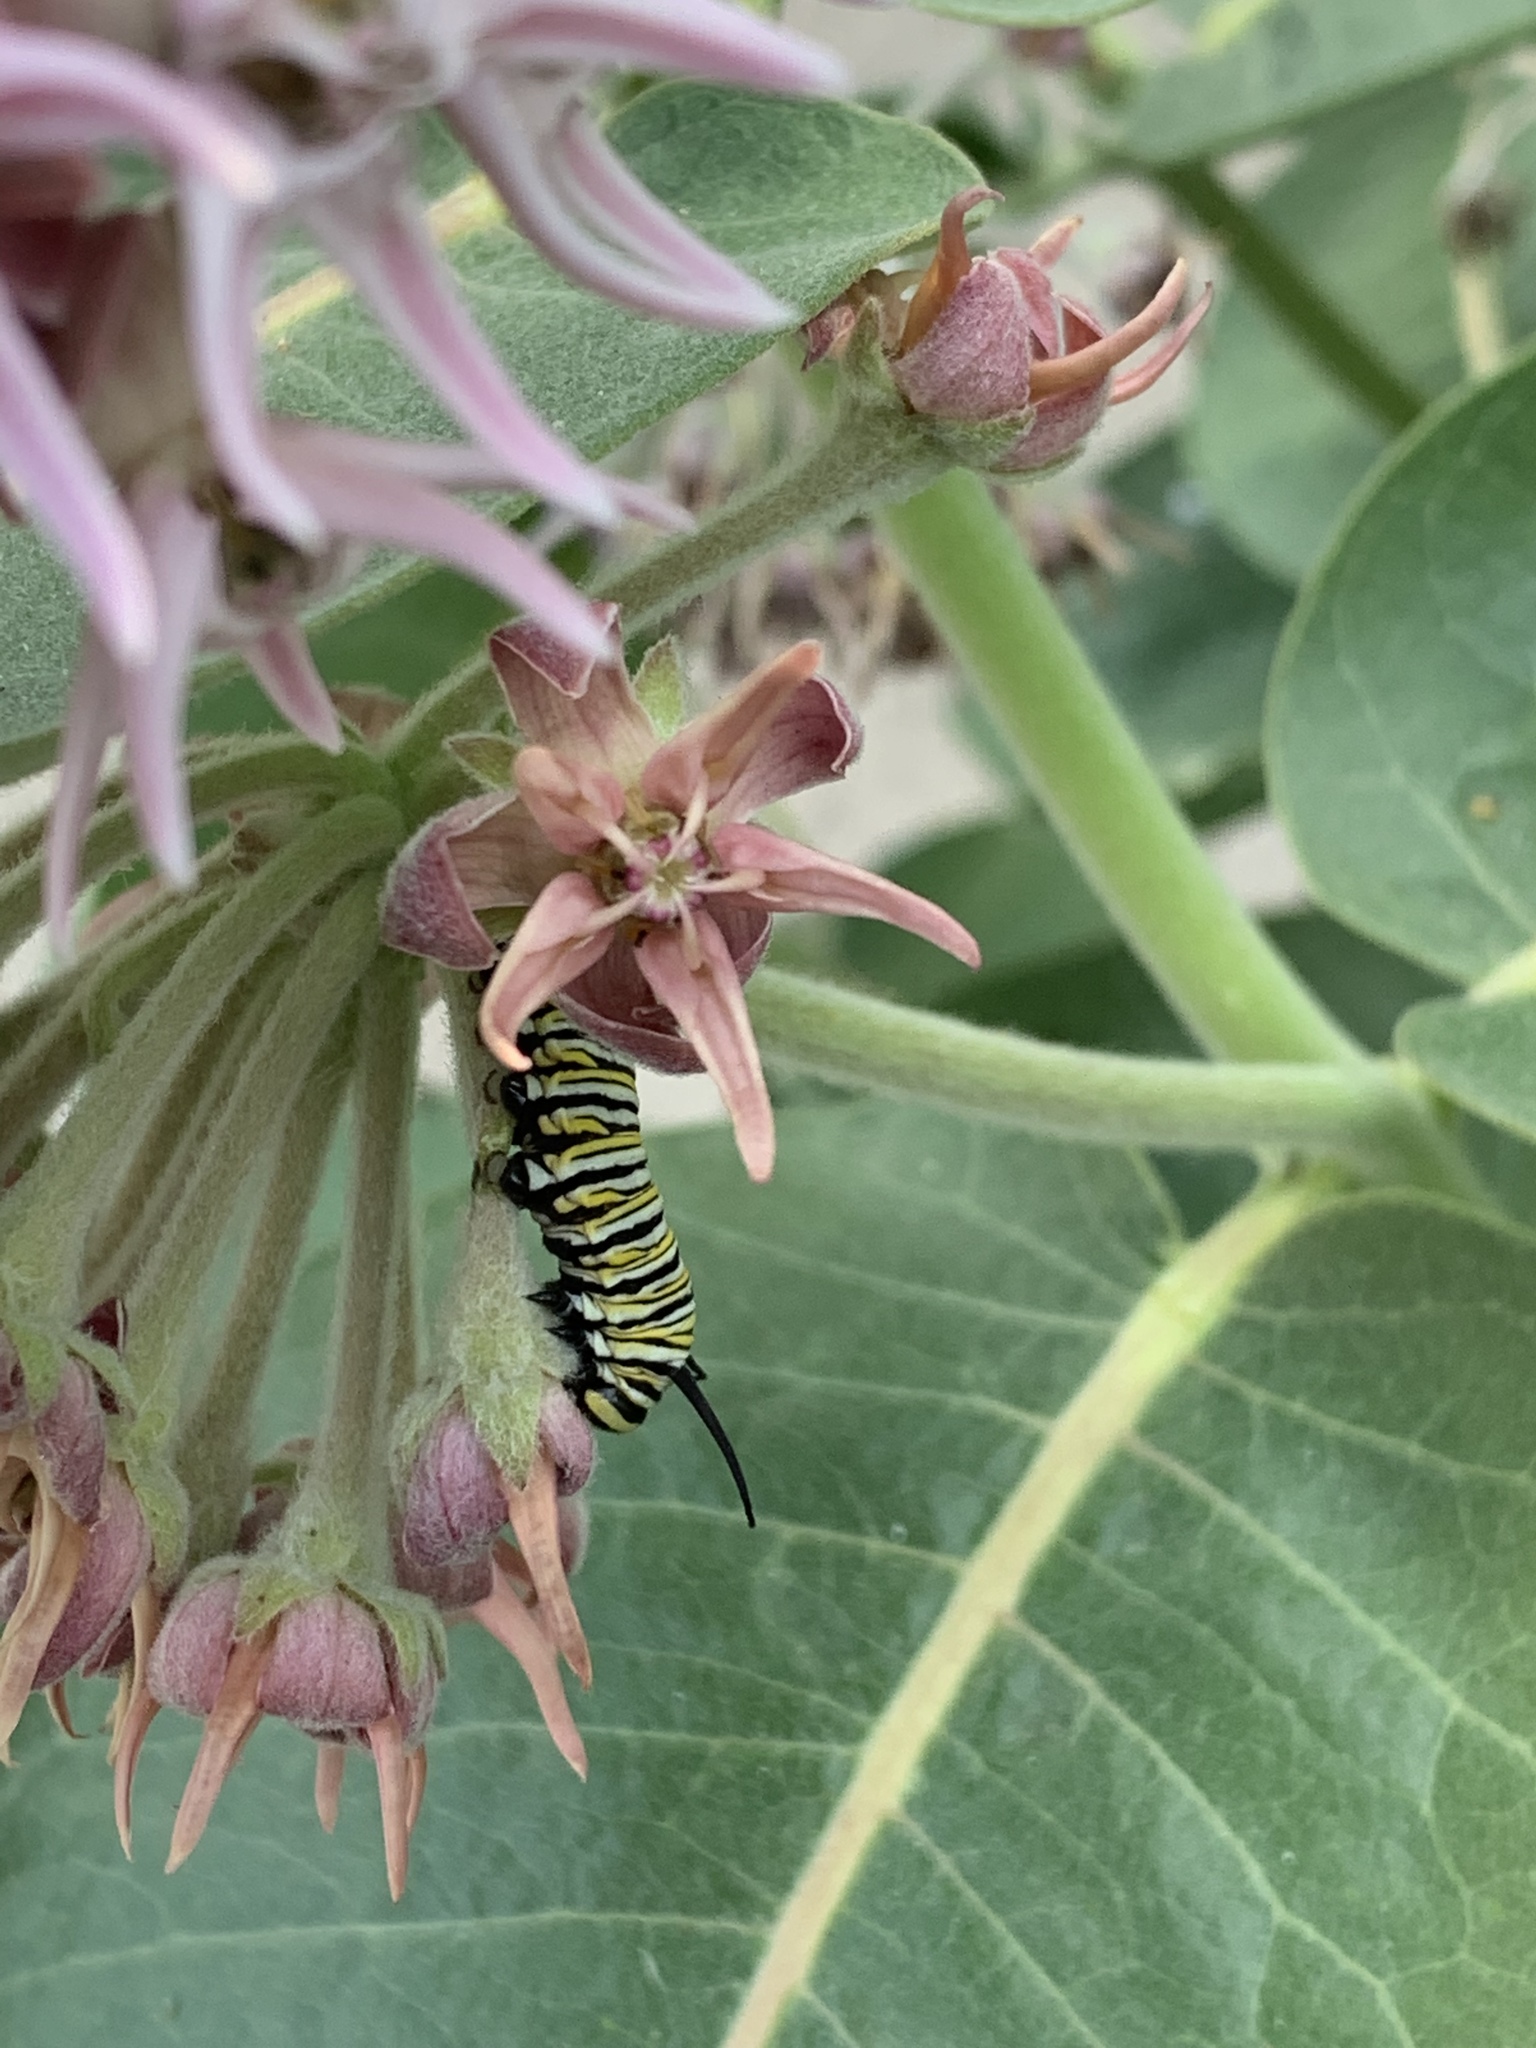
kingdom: Animalia
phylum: Arthropoda
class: Insecta
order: Lepidoptera
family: Nymphalidae
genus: Danaus
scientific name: Danaus plexippus
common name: Monarch
